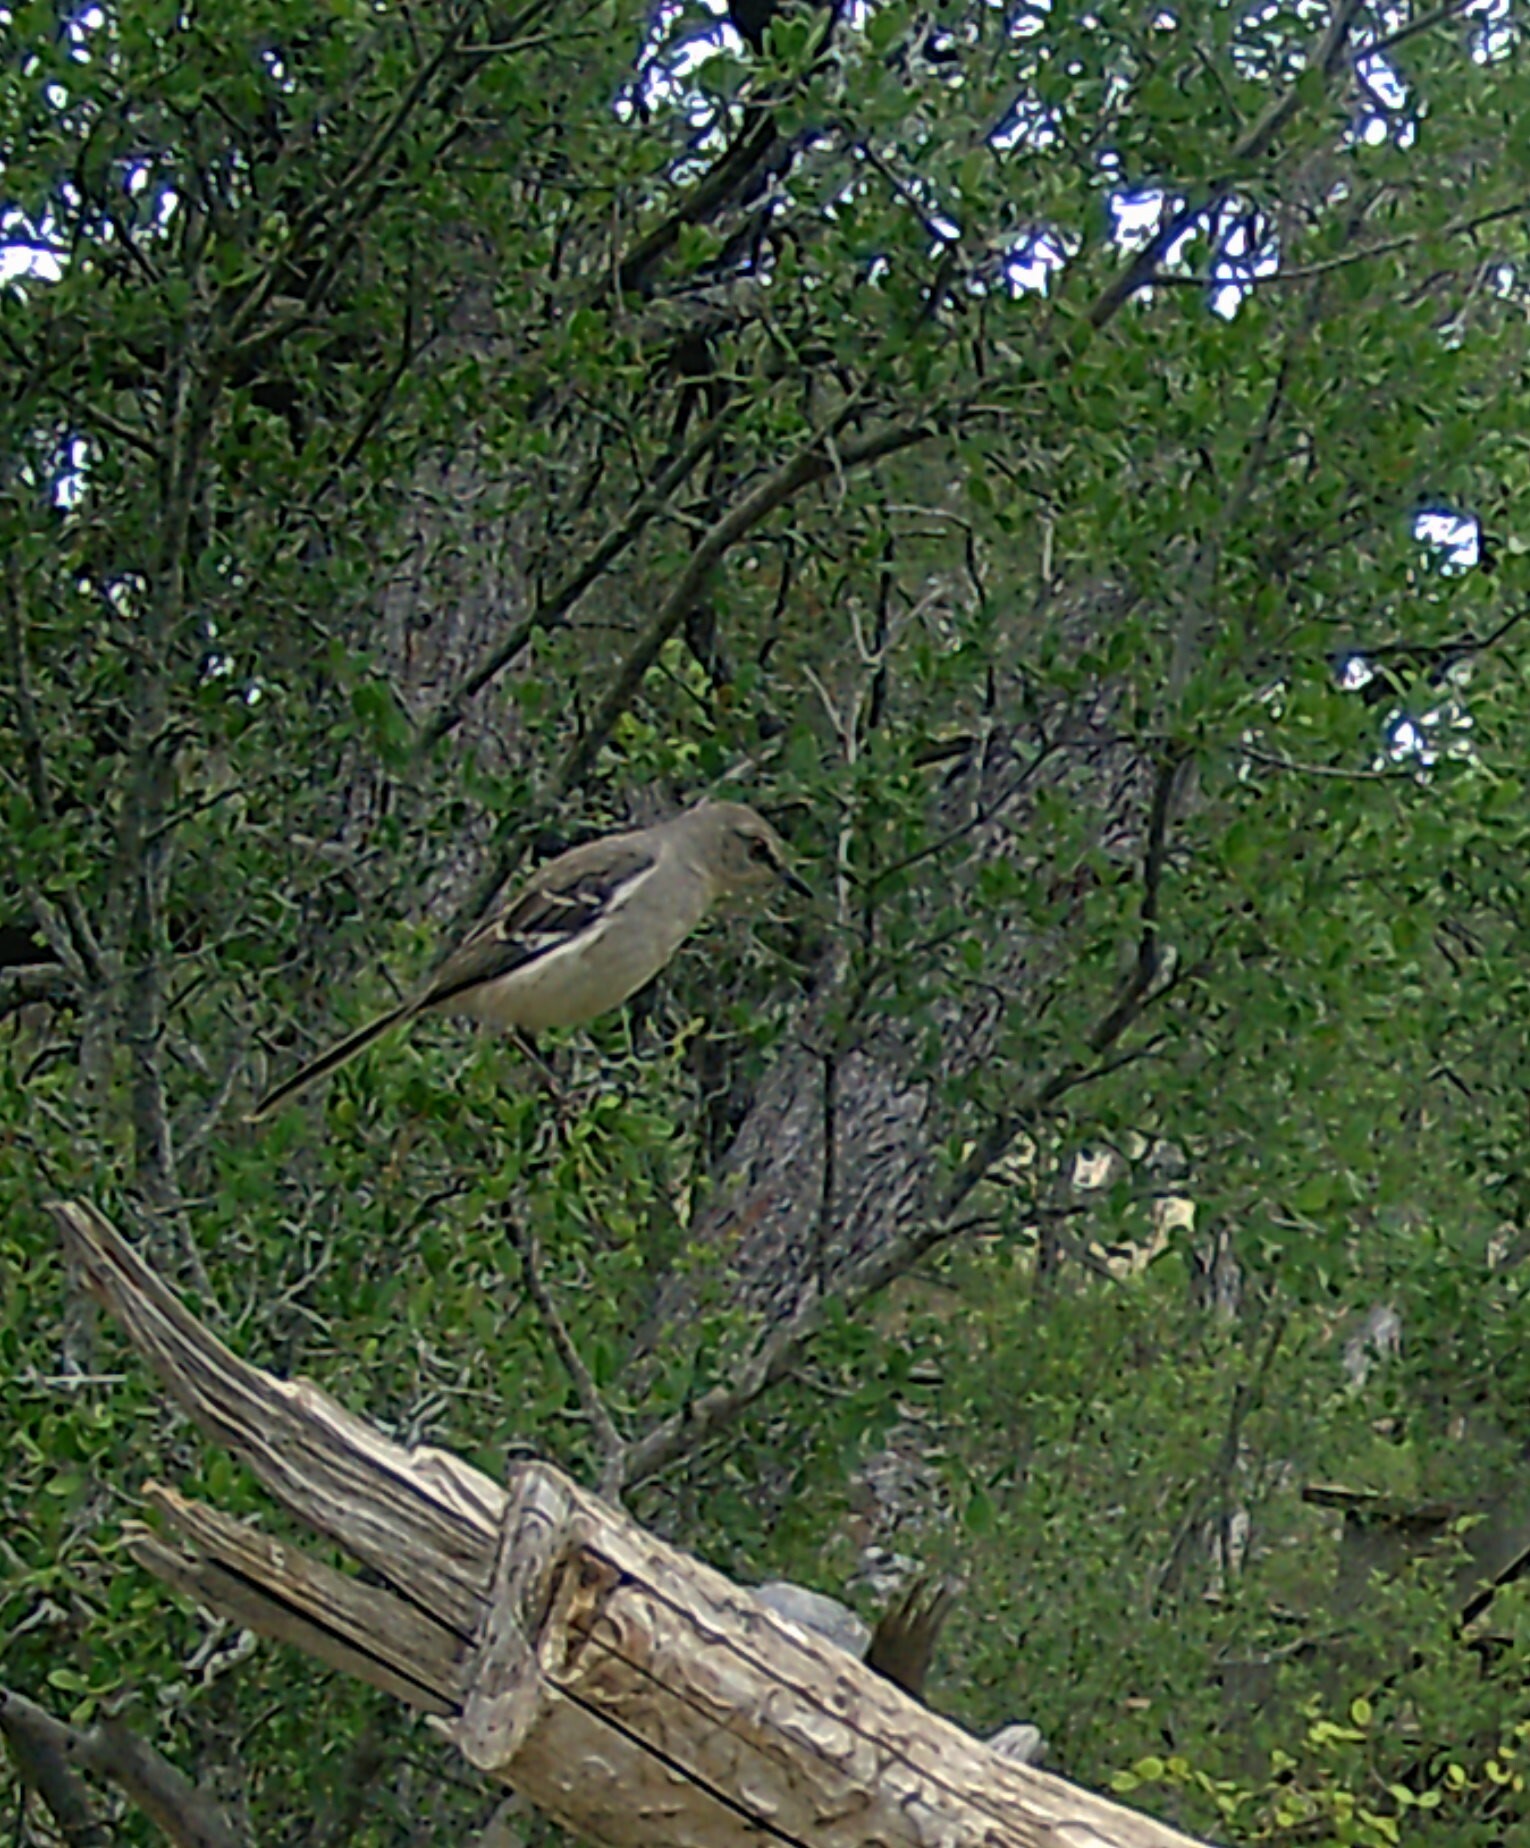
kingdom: Animalia
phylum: Chordata
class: Aves
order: Passeriformes
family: Mimidae
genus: Mimus
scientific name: Mimus polyglottos
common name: Northern mockingbird
